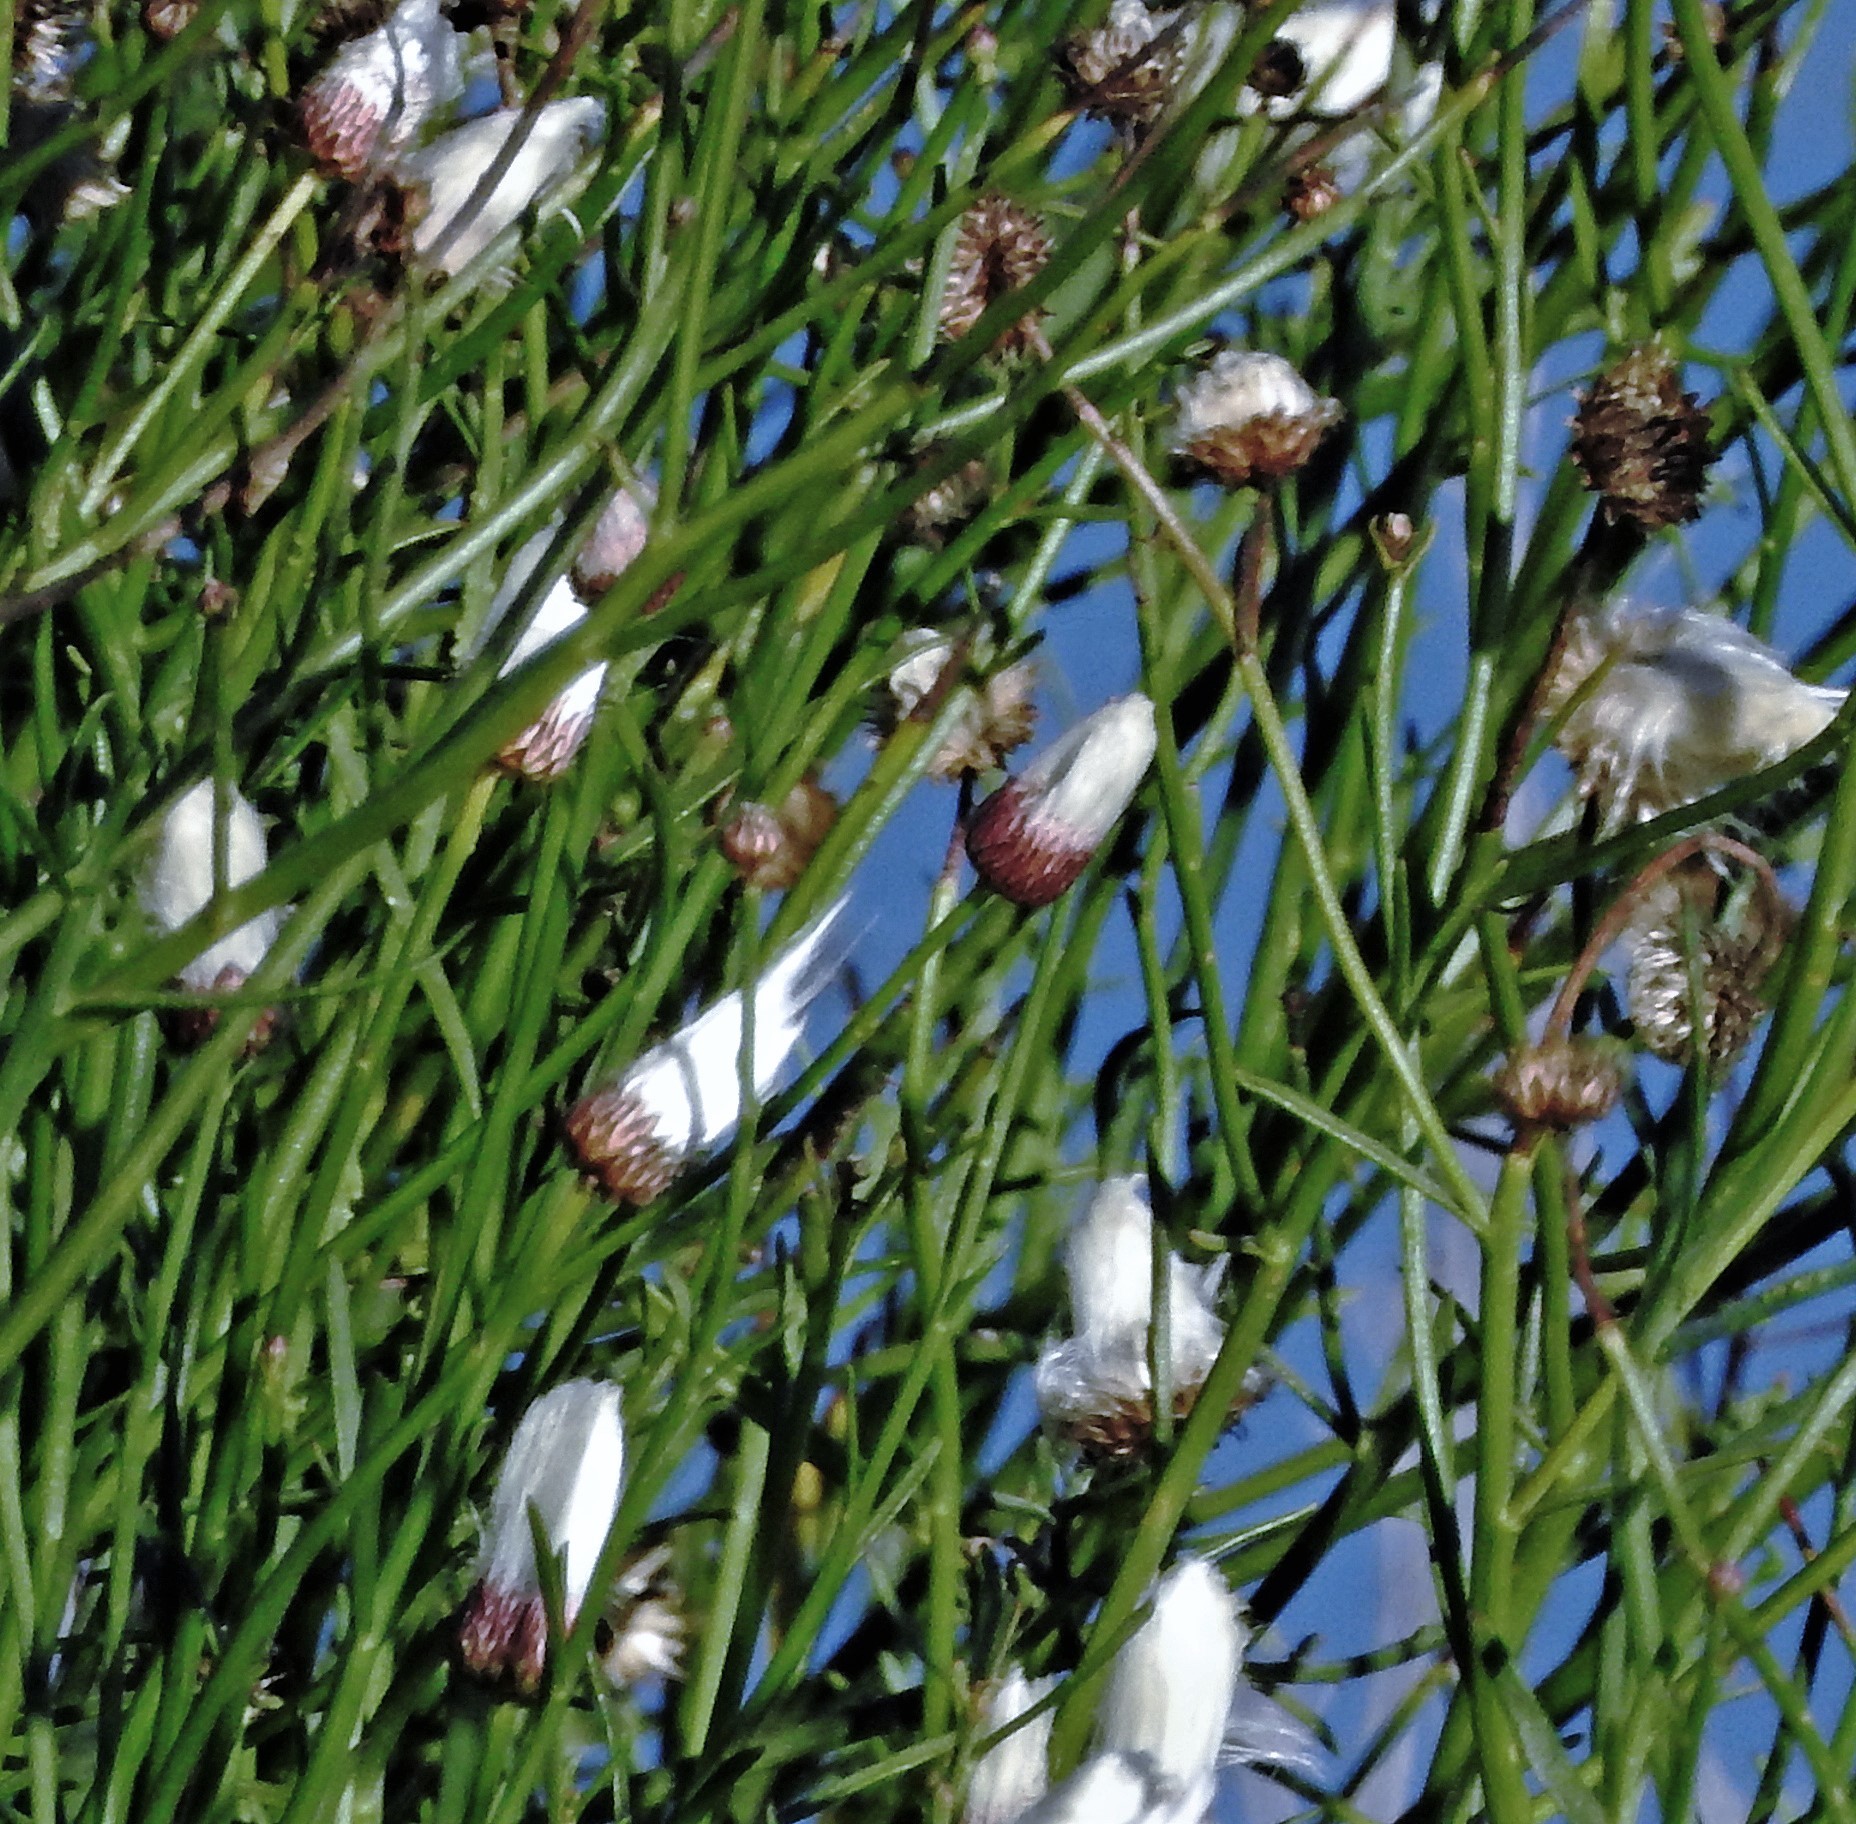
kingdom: Plantae
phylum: Tracheophyta
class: Magnoliopsida
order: Asterales
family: Asteraceae
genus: Baccharis
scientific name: Baccharis juncea
